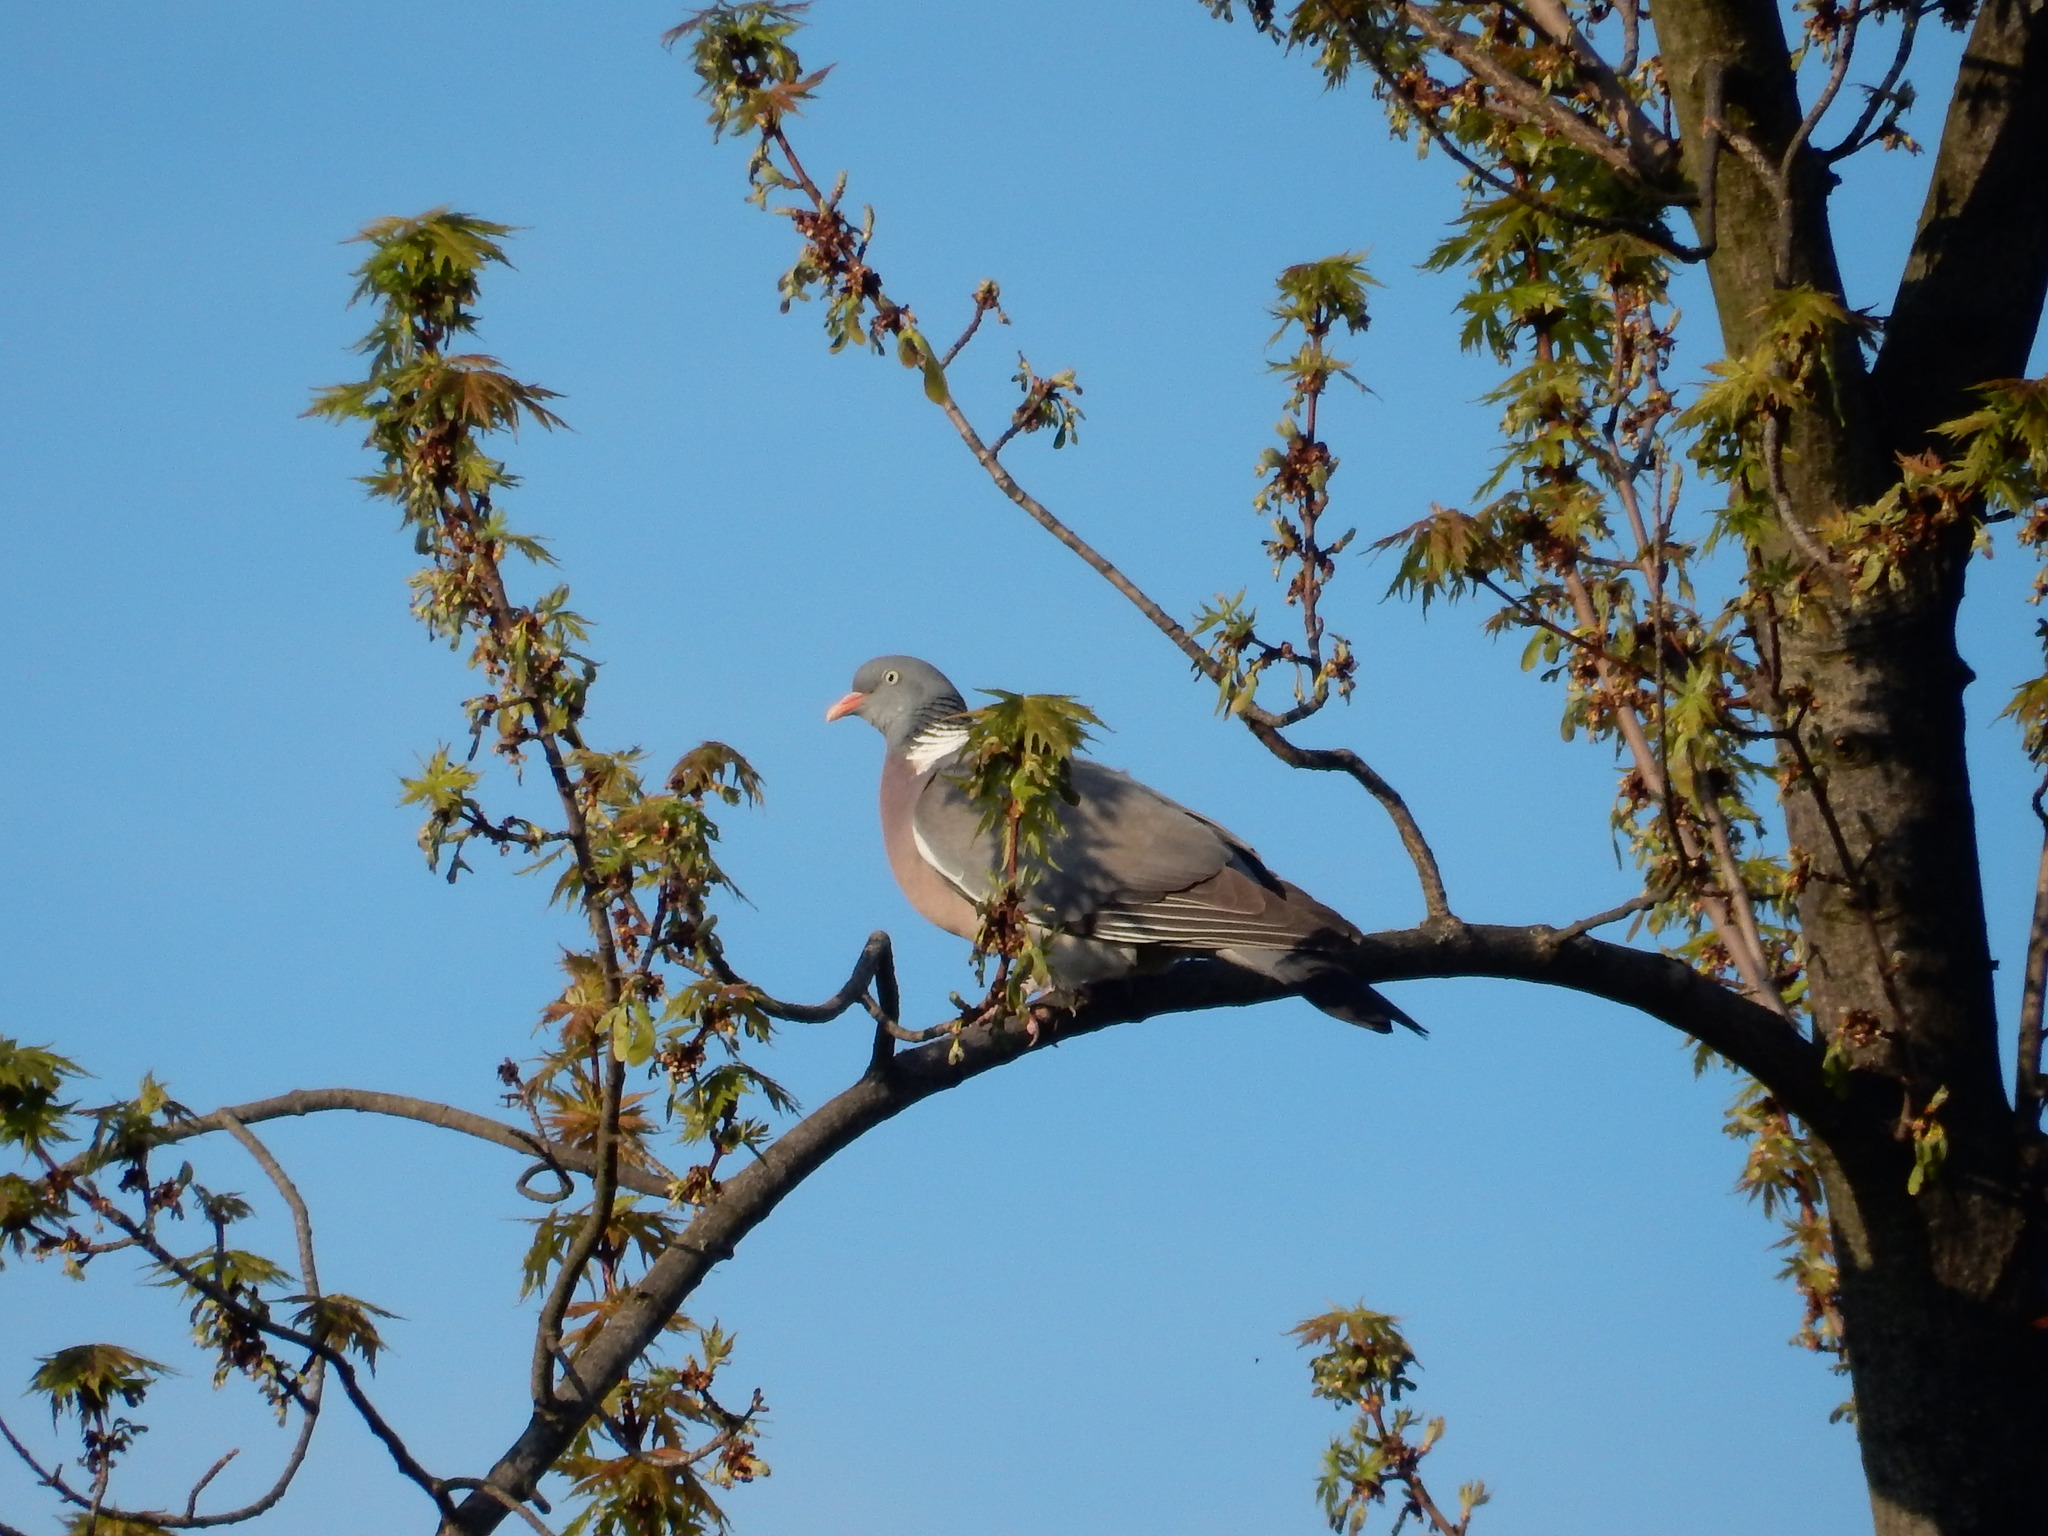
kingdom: Animalia
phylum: Chordata
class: Aves
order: Columbiformes
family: Columbidae
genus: Columba
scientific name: Columba palumbus
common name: Common wood pigeon
